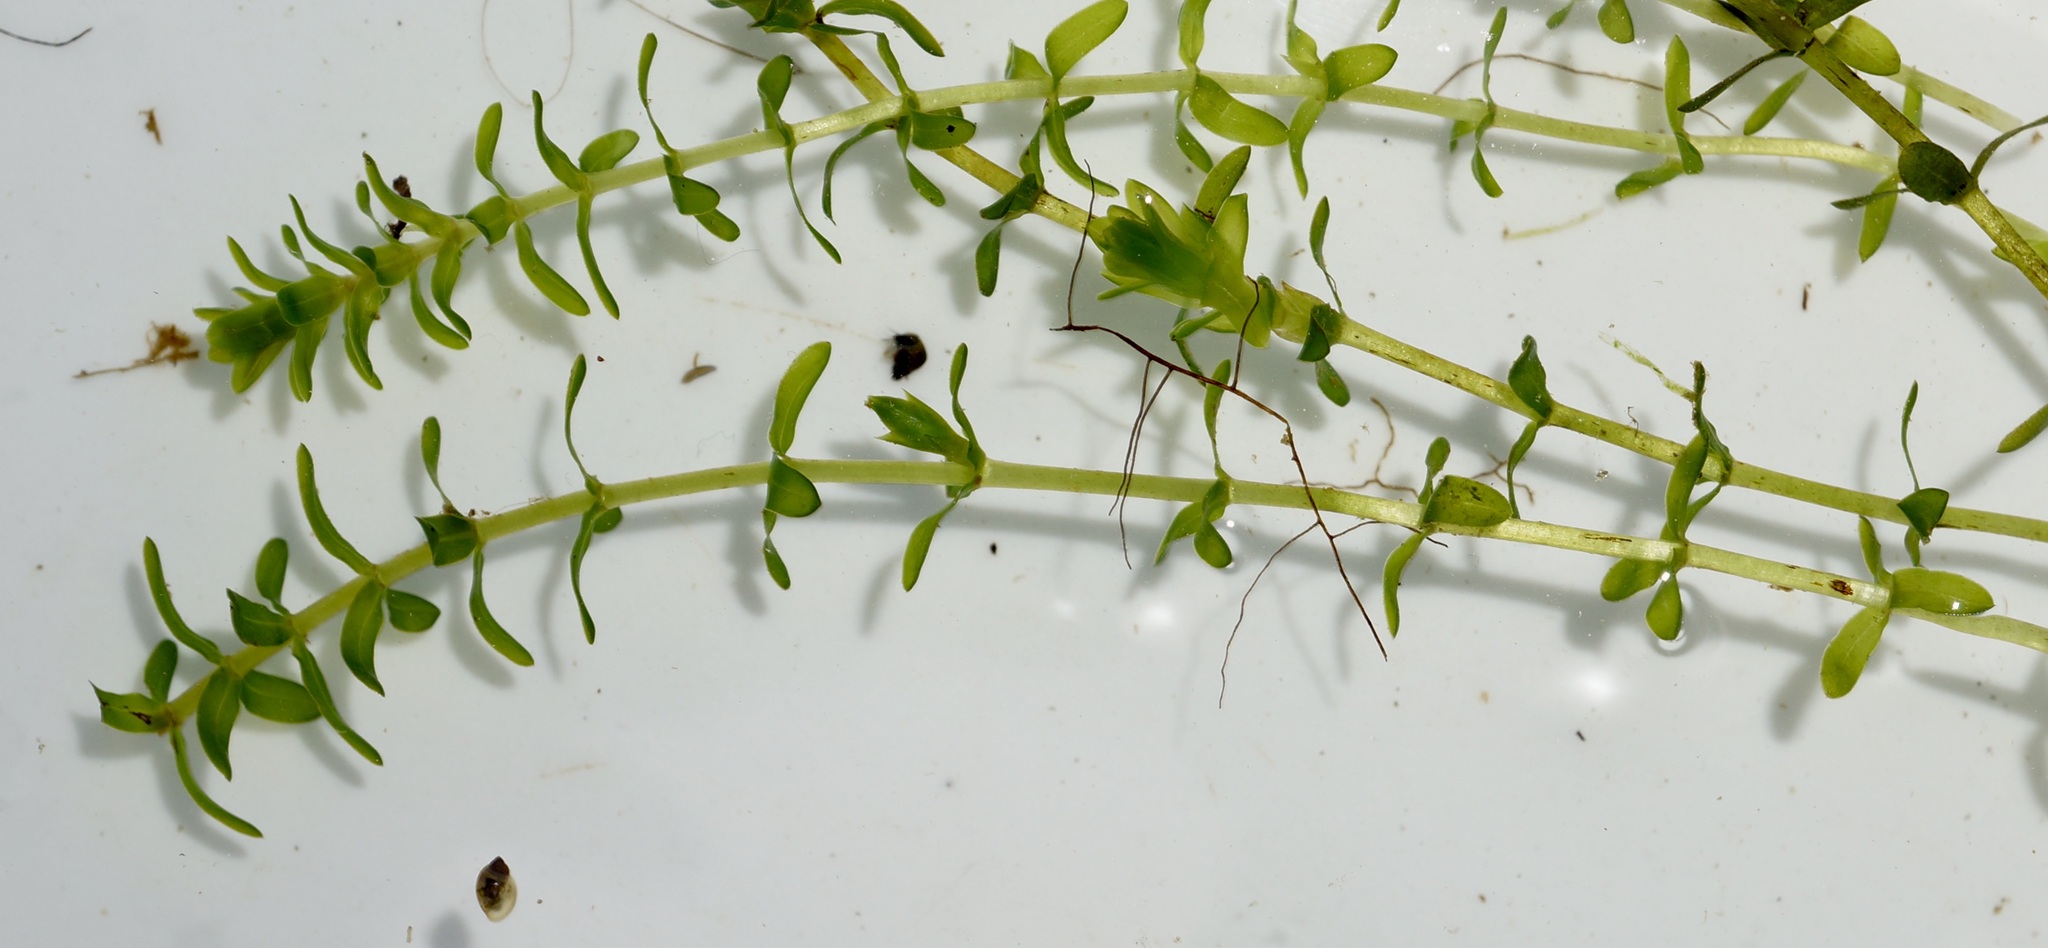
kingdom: Plantae
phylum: Tracheophyta
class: Liliopsida
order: Alismatales
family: Hydrocharitaceae
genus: Elodea
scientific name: Elodea canadensis
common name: Canadian waterweed
